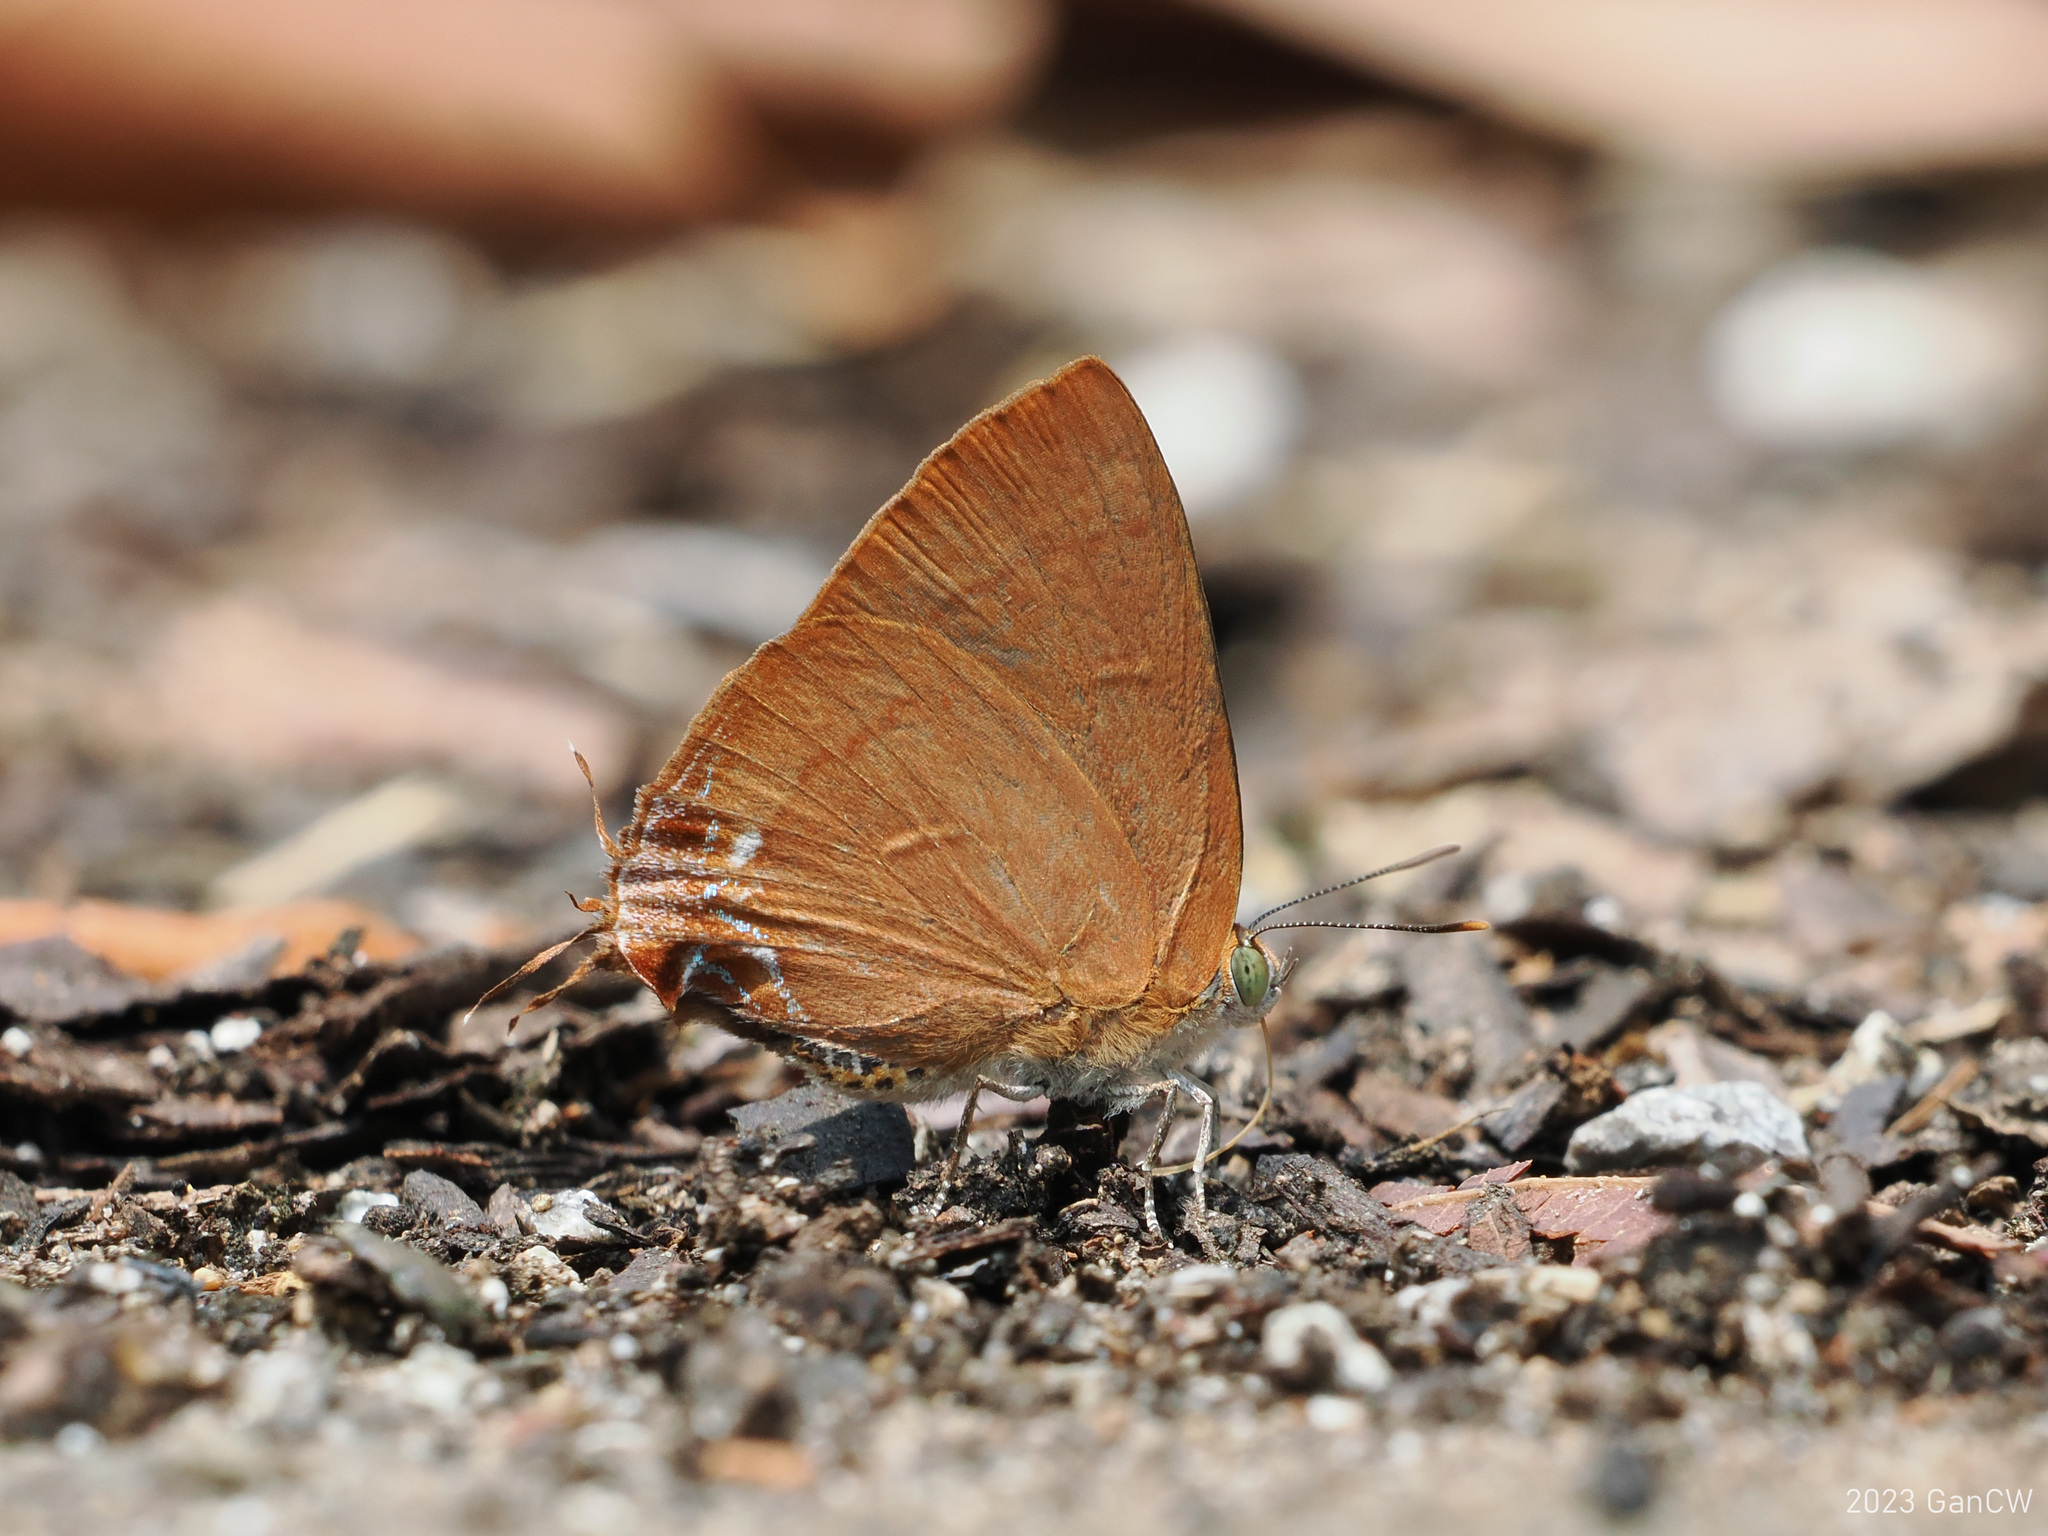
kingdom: Animalia
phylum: Arthropoda
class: Insecta
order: Lepidoptera
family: Lycaenidae
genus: Remelana
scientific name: Remelana jangala
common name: Chocolate royal
